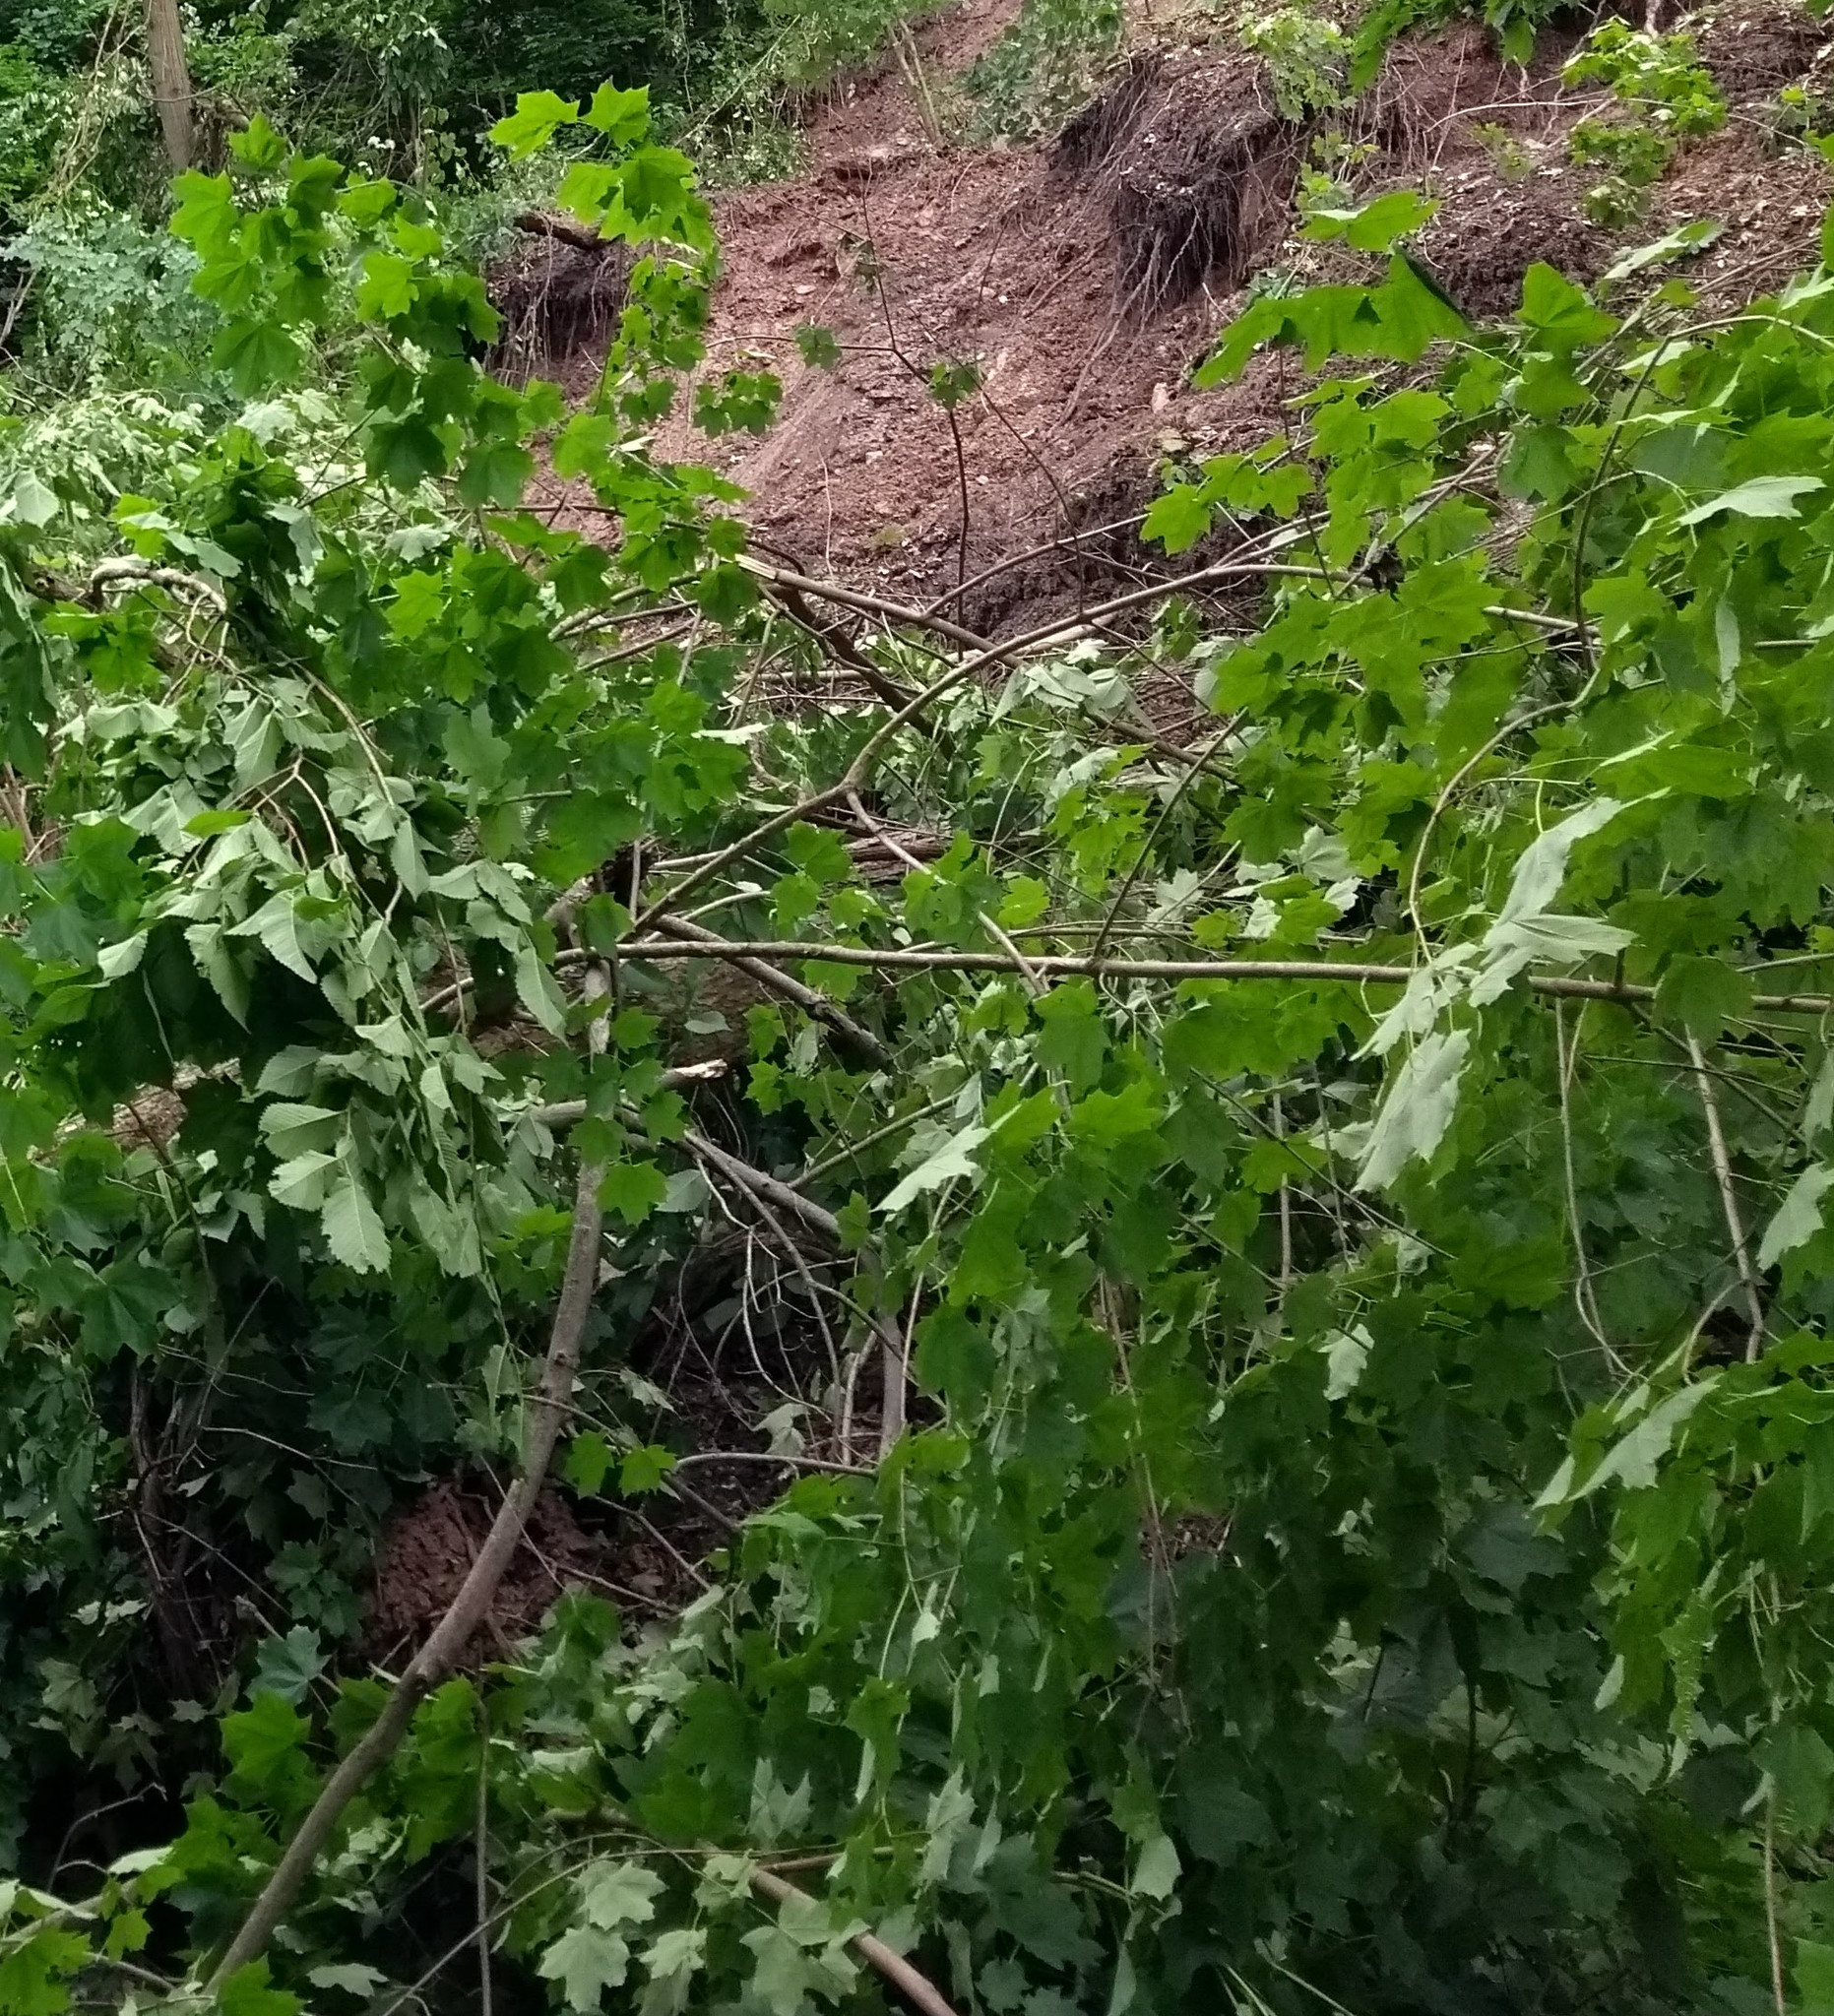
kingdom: Plantae
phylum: Tracheophyta
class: Magnoliopsida
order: Sapindales
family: Sapindaceae
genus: Acer
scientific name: Acer saccharum
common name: Sugar maple
